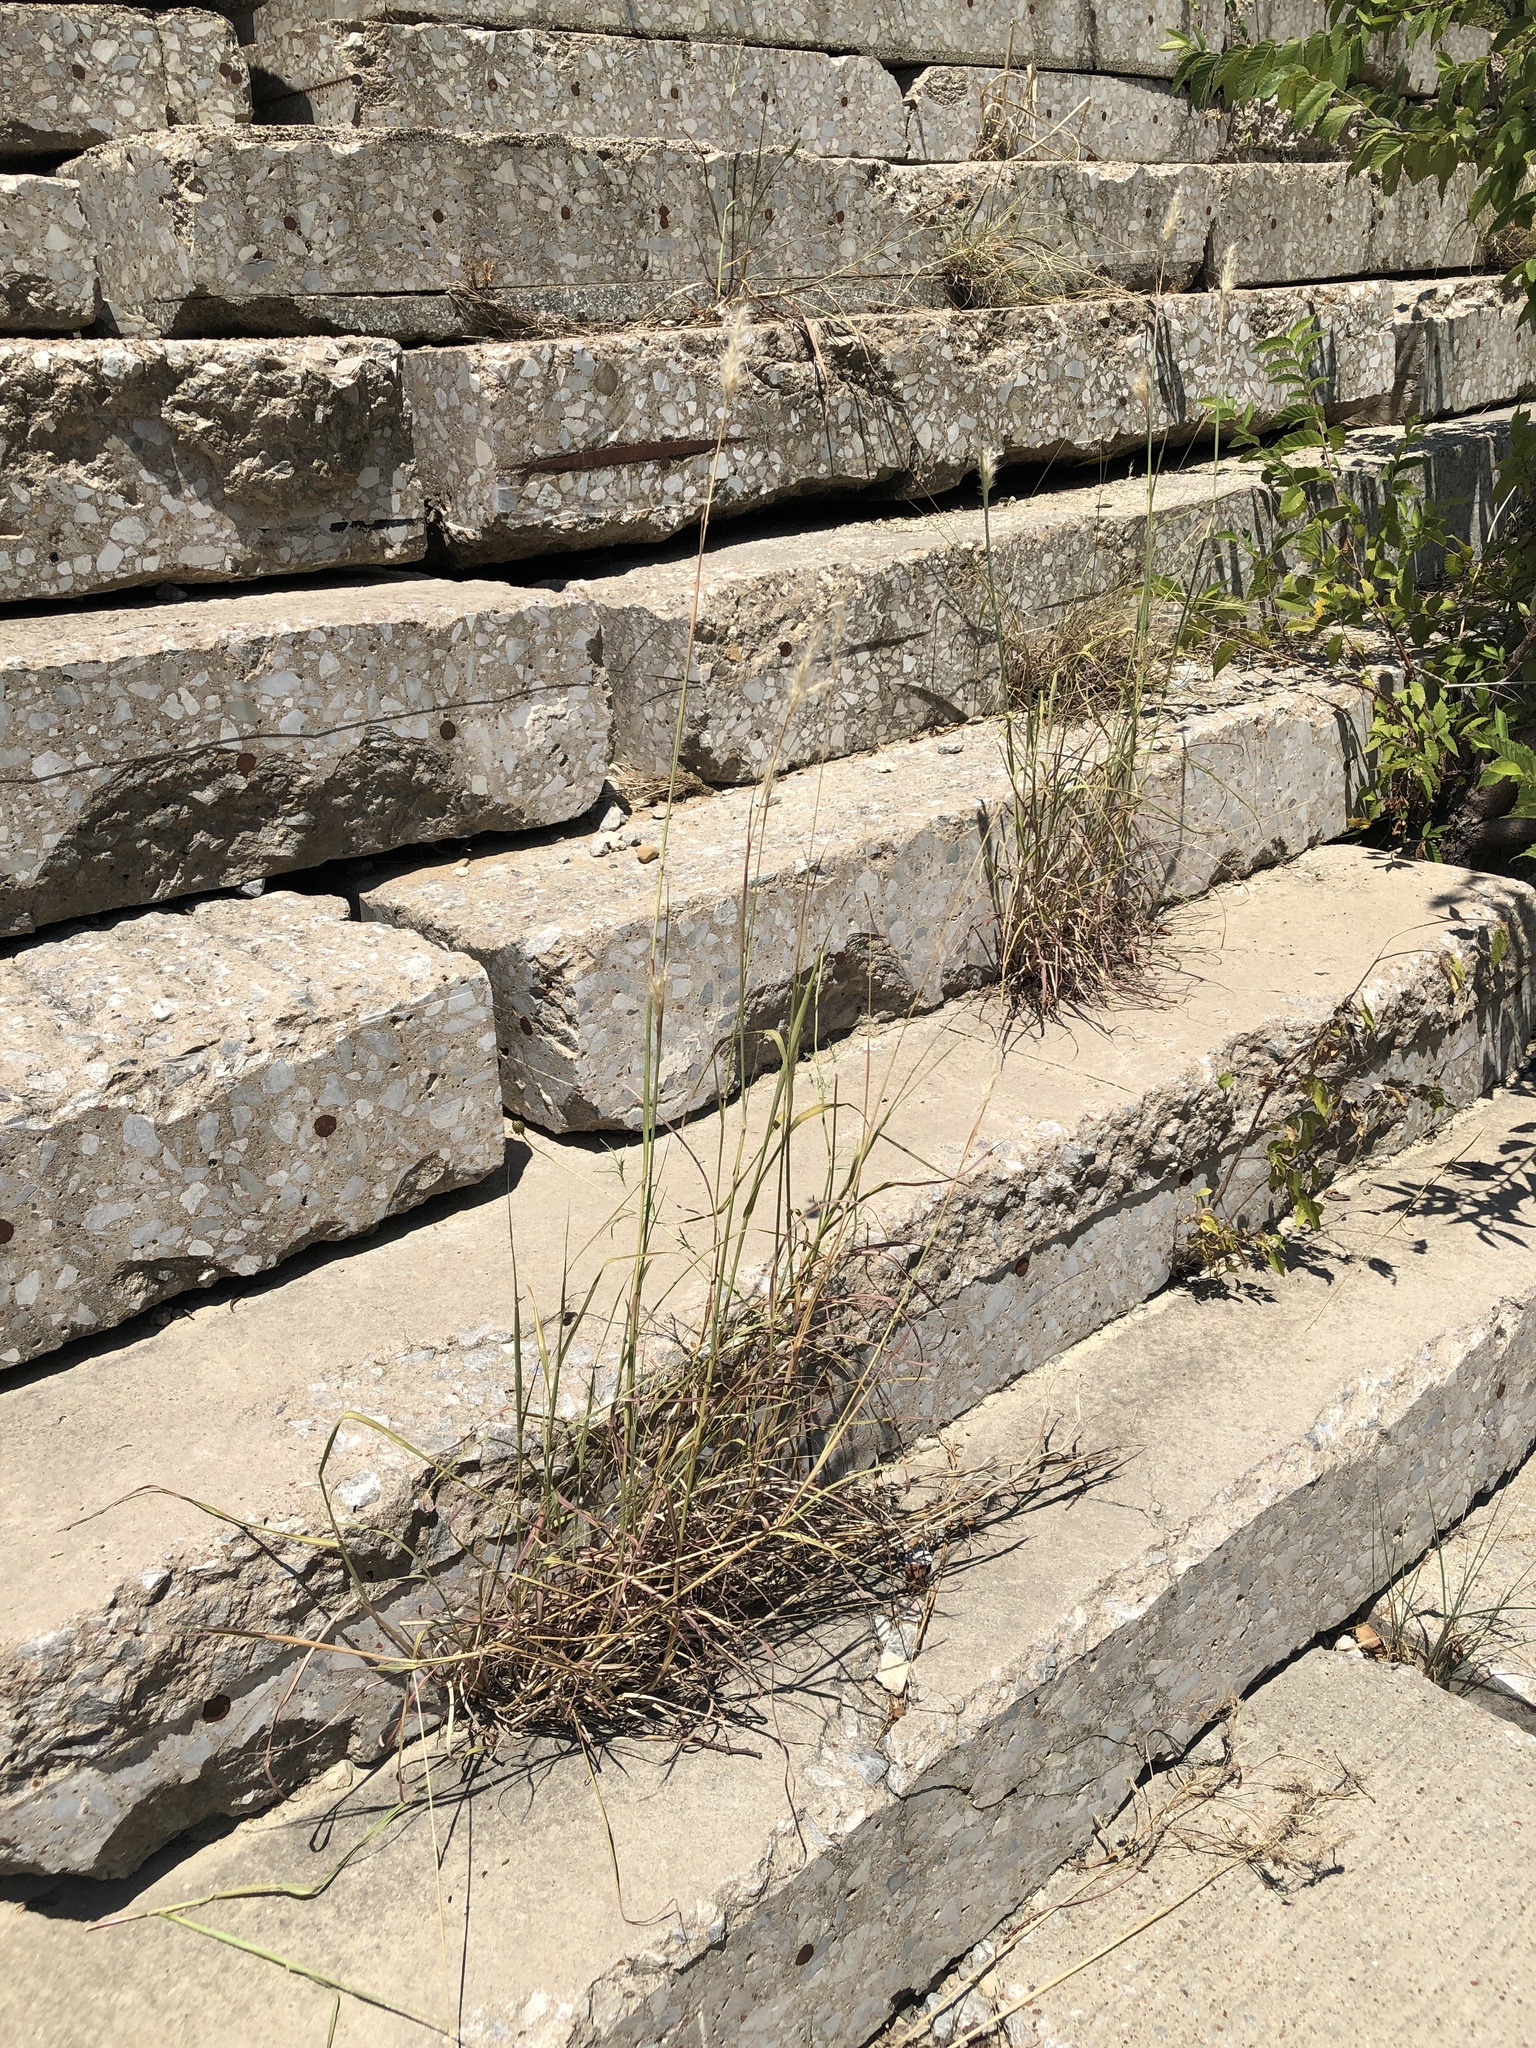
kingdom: Plantae
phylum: Tracheophyta
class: Liliopsida
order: Poales
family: Poaceae
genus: Bothriochloa
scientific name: Bothriochloa torreyana
